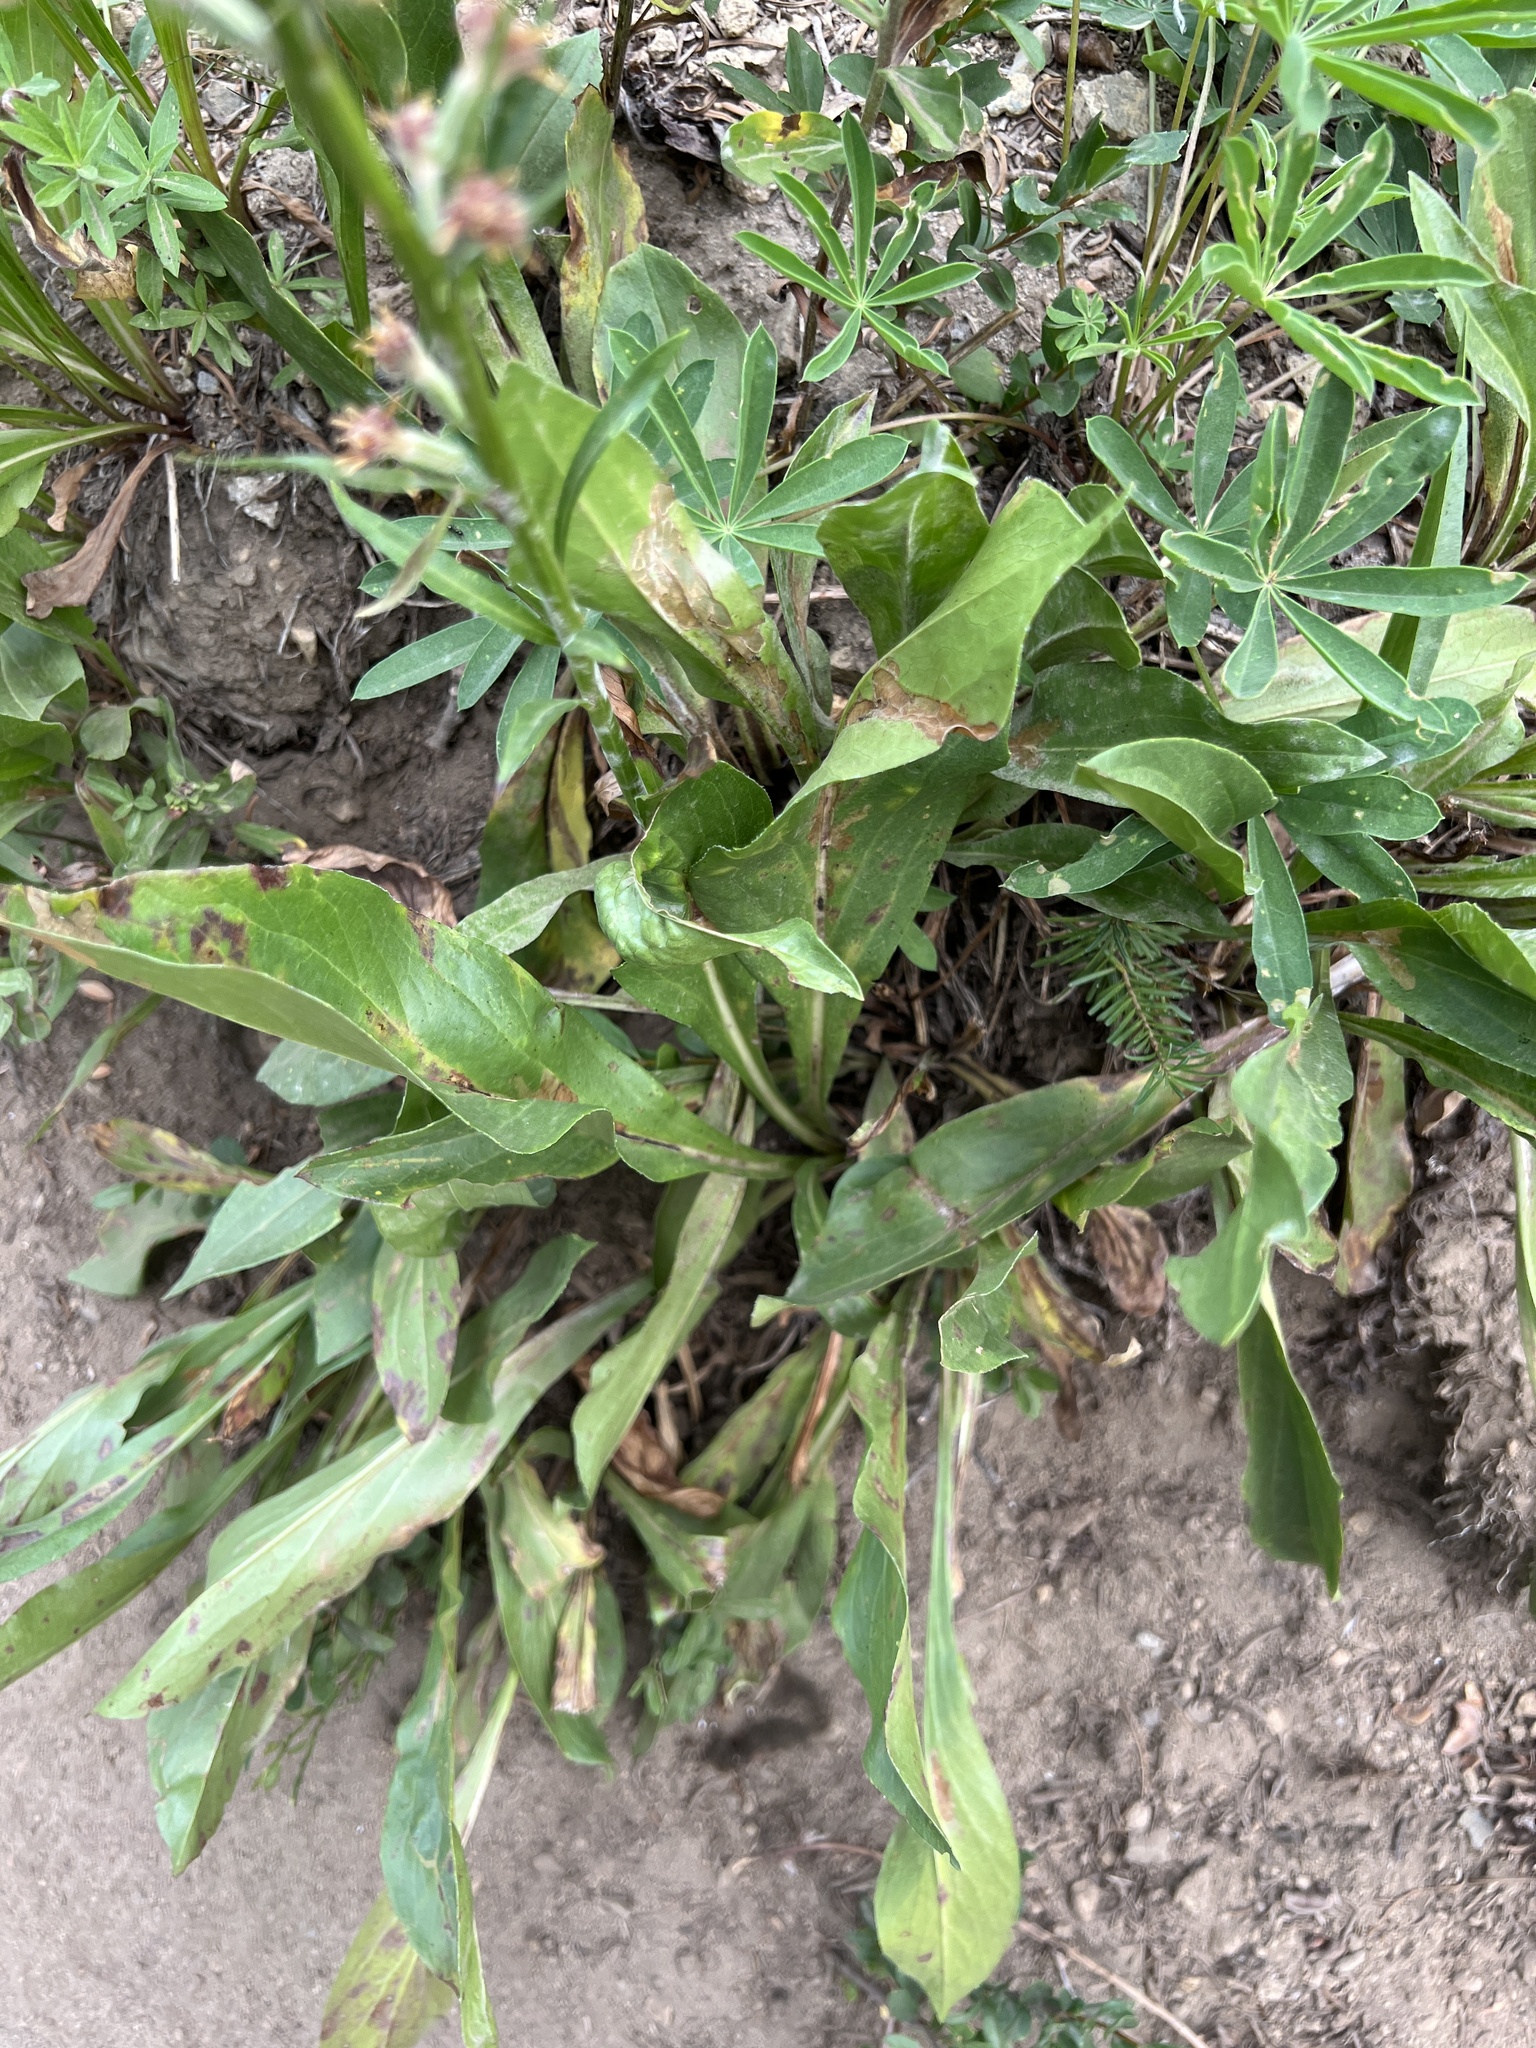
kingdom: Plantae
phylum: Tracheophyta
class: Magnoliopsida
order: Asterales
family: Asteraceae
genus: Rainiera
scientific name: Rainiera stricta
